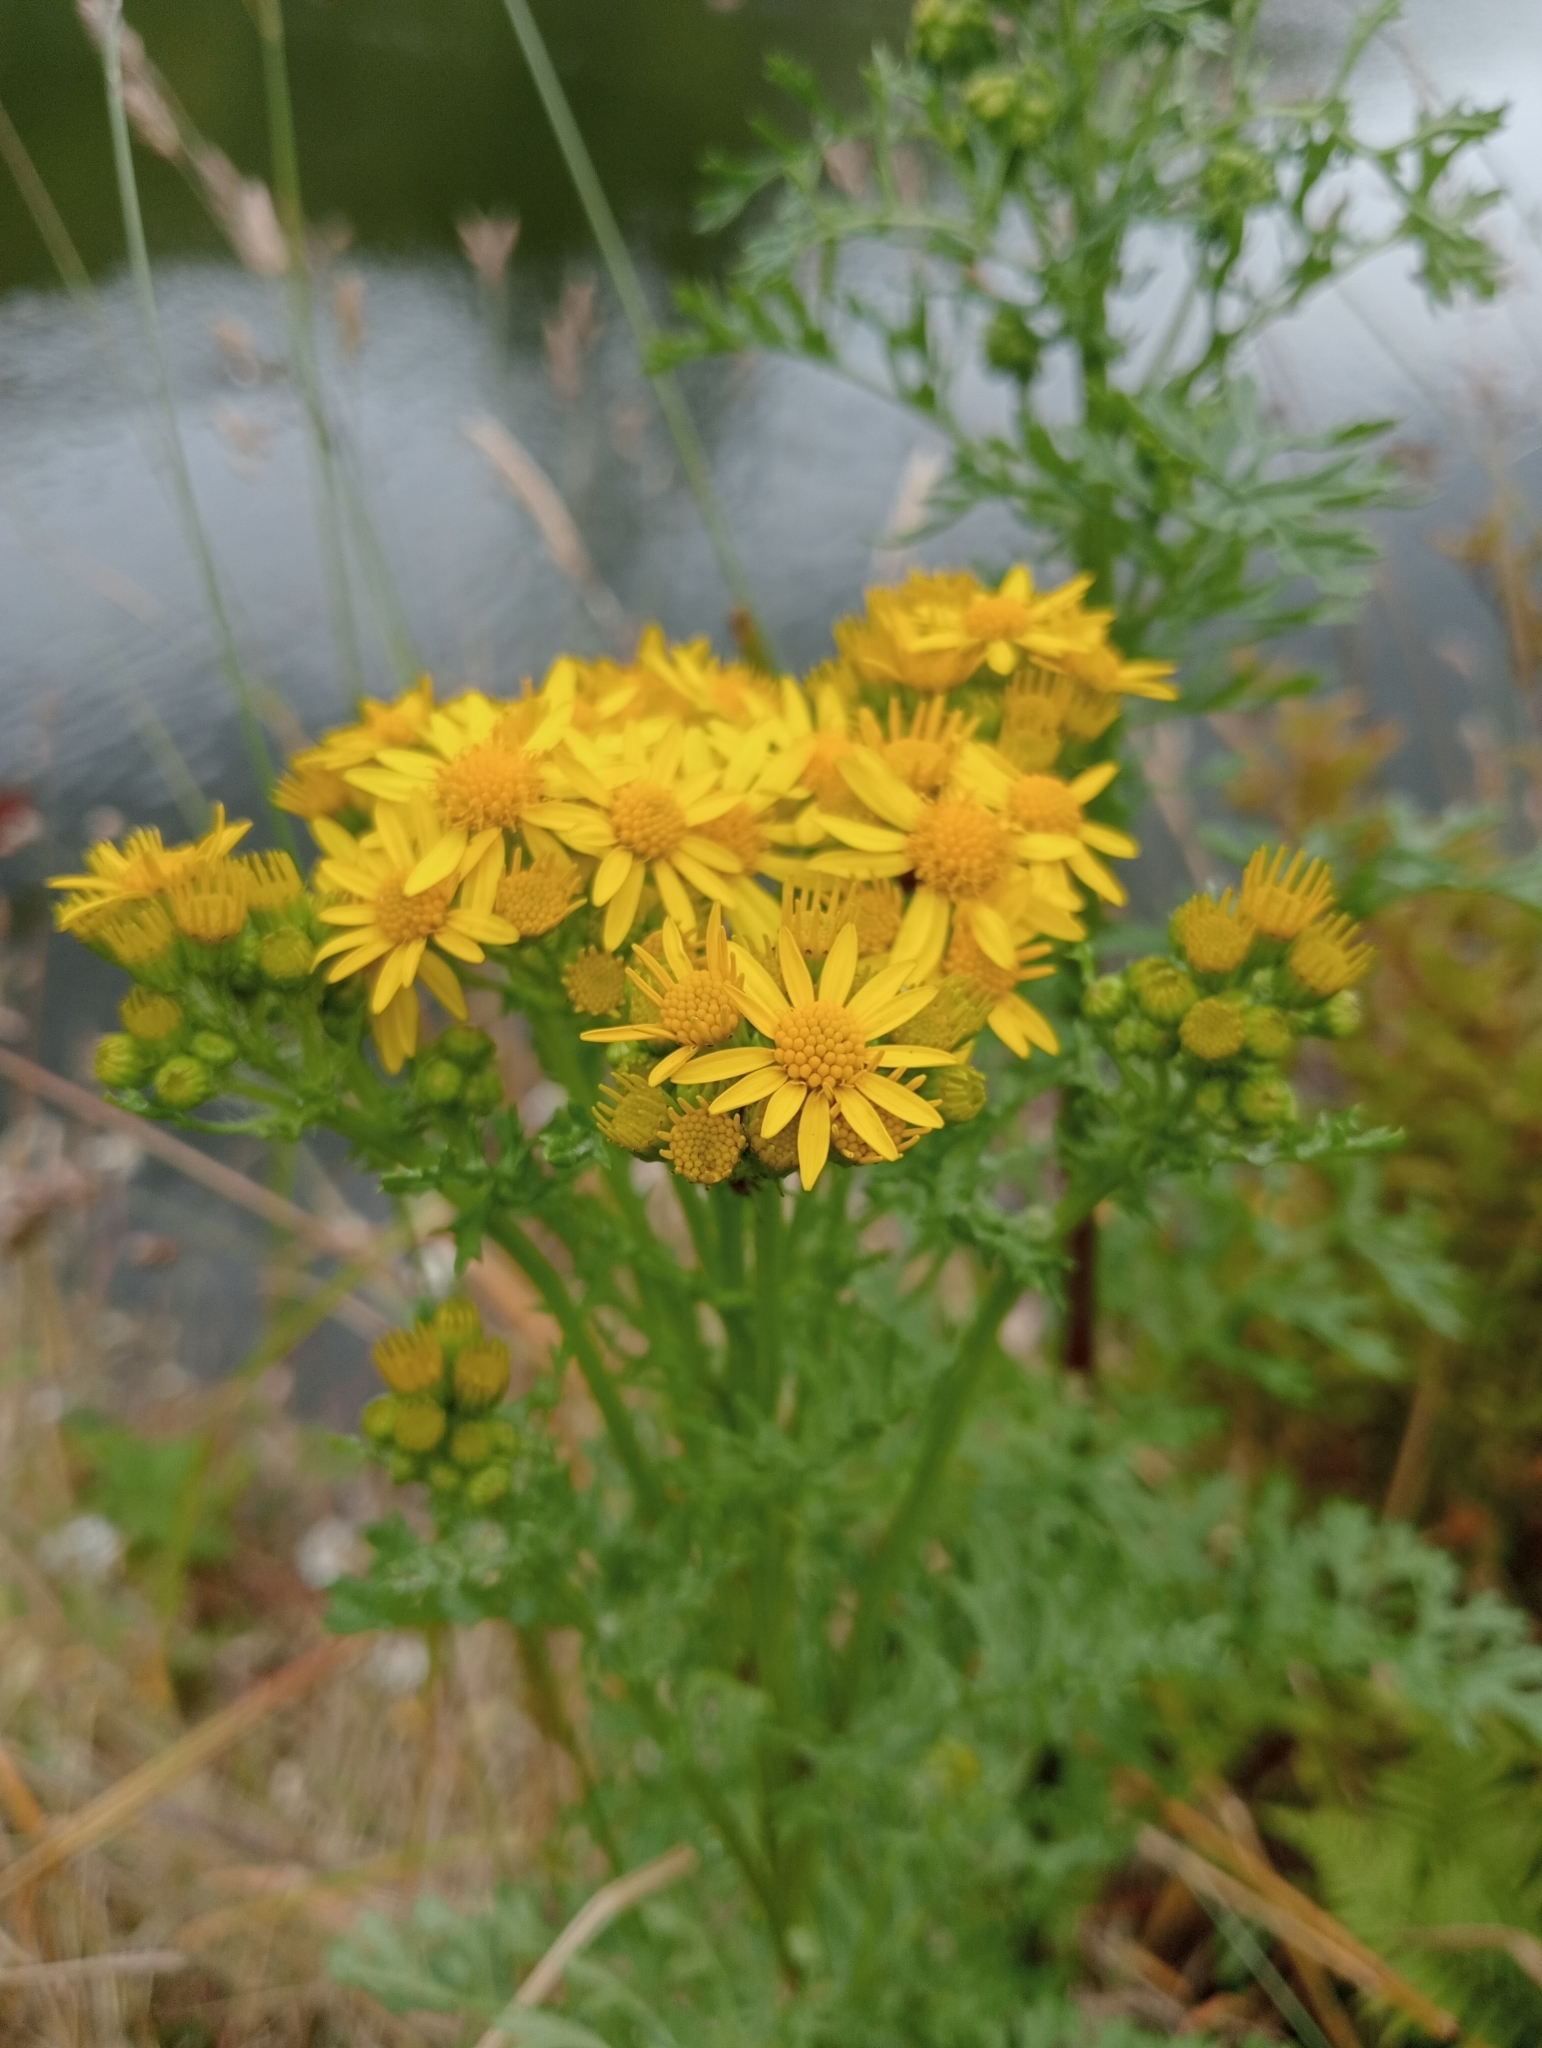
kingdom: Plantae
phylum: Tracheophyta
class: Magnoliopsida
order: Asterales
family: Asteraceae
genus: Jacobaea
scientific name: Jacobaea vulgaris
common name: Stinking willie
